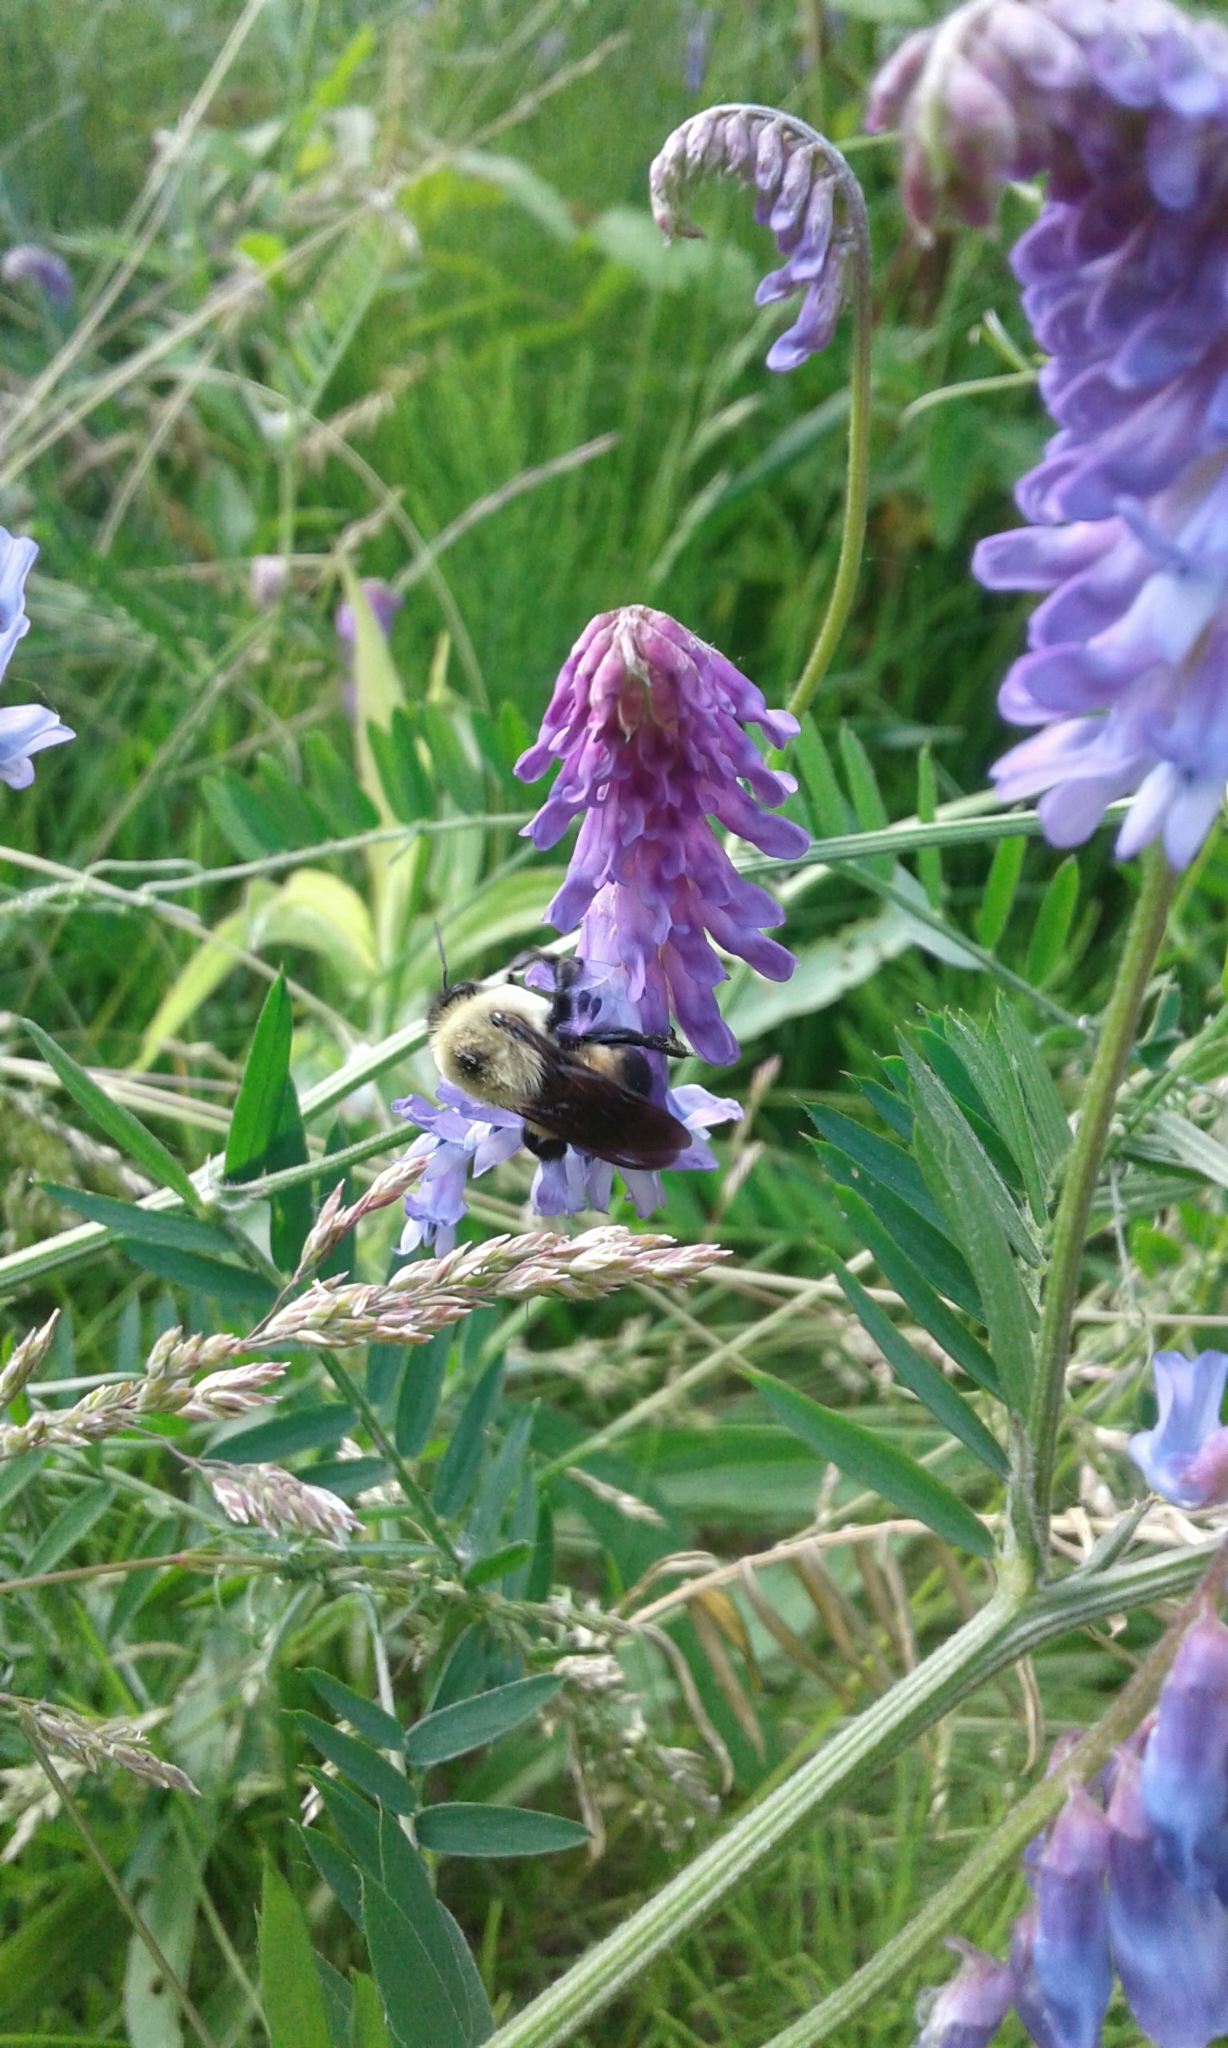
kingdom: Animalia
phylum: Arthropoda
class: Insecta
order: Hymenoptera
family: Apidae
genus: Bombus
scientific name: Bombus griseocollis
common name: Brown-belted bumble bee
